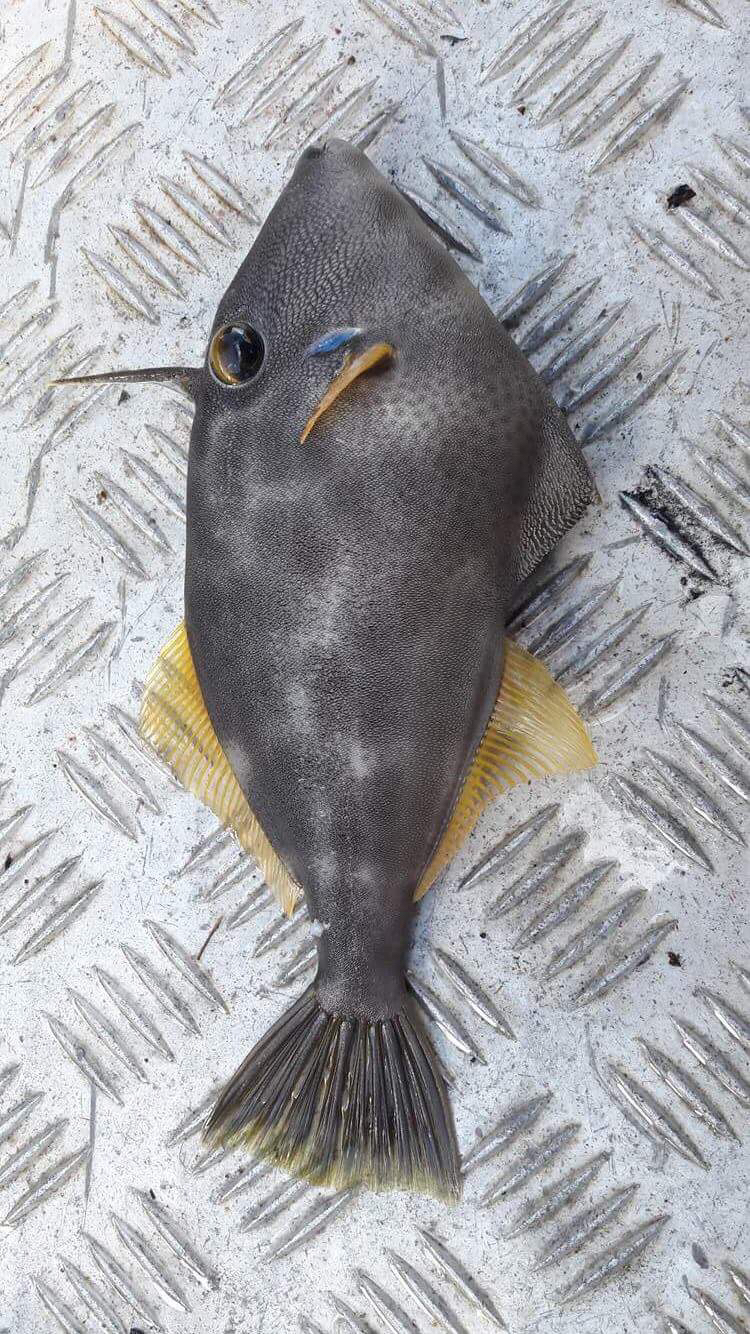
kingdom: Animalia
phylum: Chordata
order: Tetraodontiformes
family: Monacanthidae
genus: Meuschenia
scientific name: Meuschenia scaber
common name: Cosmopolitan leatherjacket
